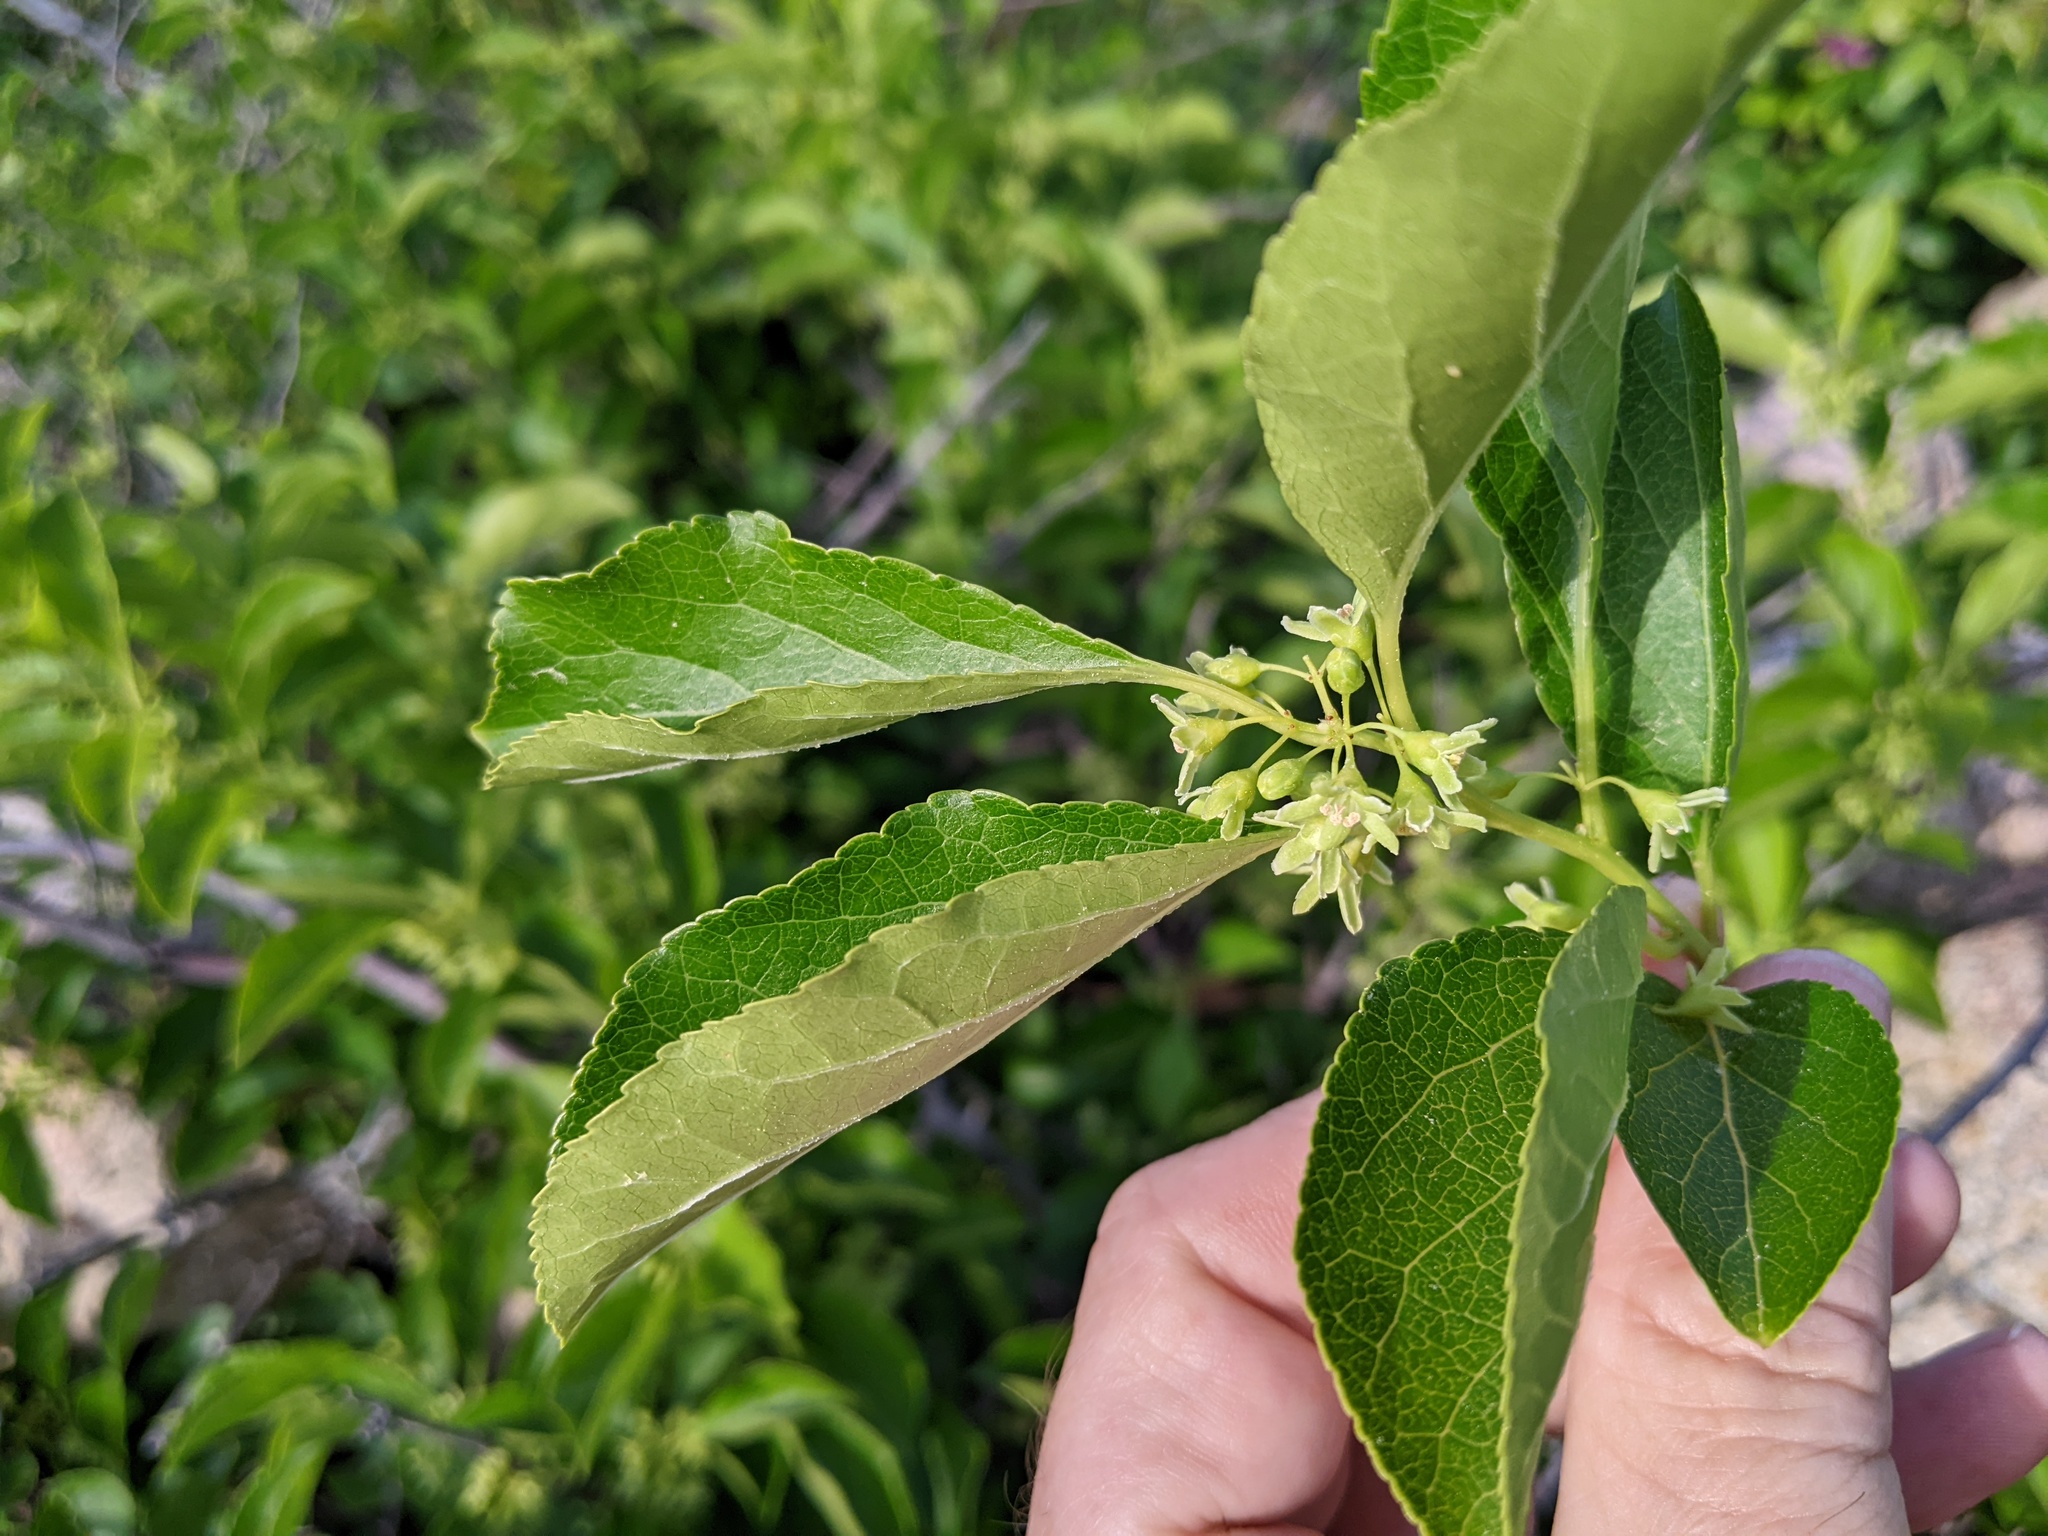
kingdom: Plantae
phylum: Tracheophyta
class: Magnoliopsida
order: Celastrales
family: Celastraceae
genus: Celastrus
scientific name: Celastrus orbiculatus
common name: Oriental bittersweet
